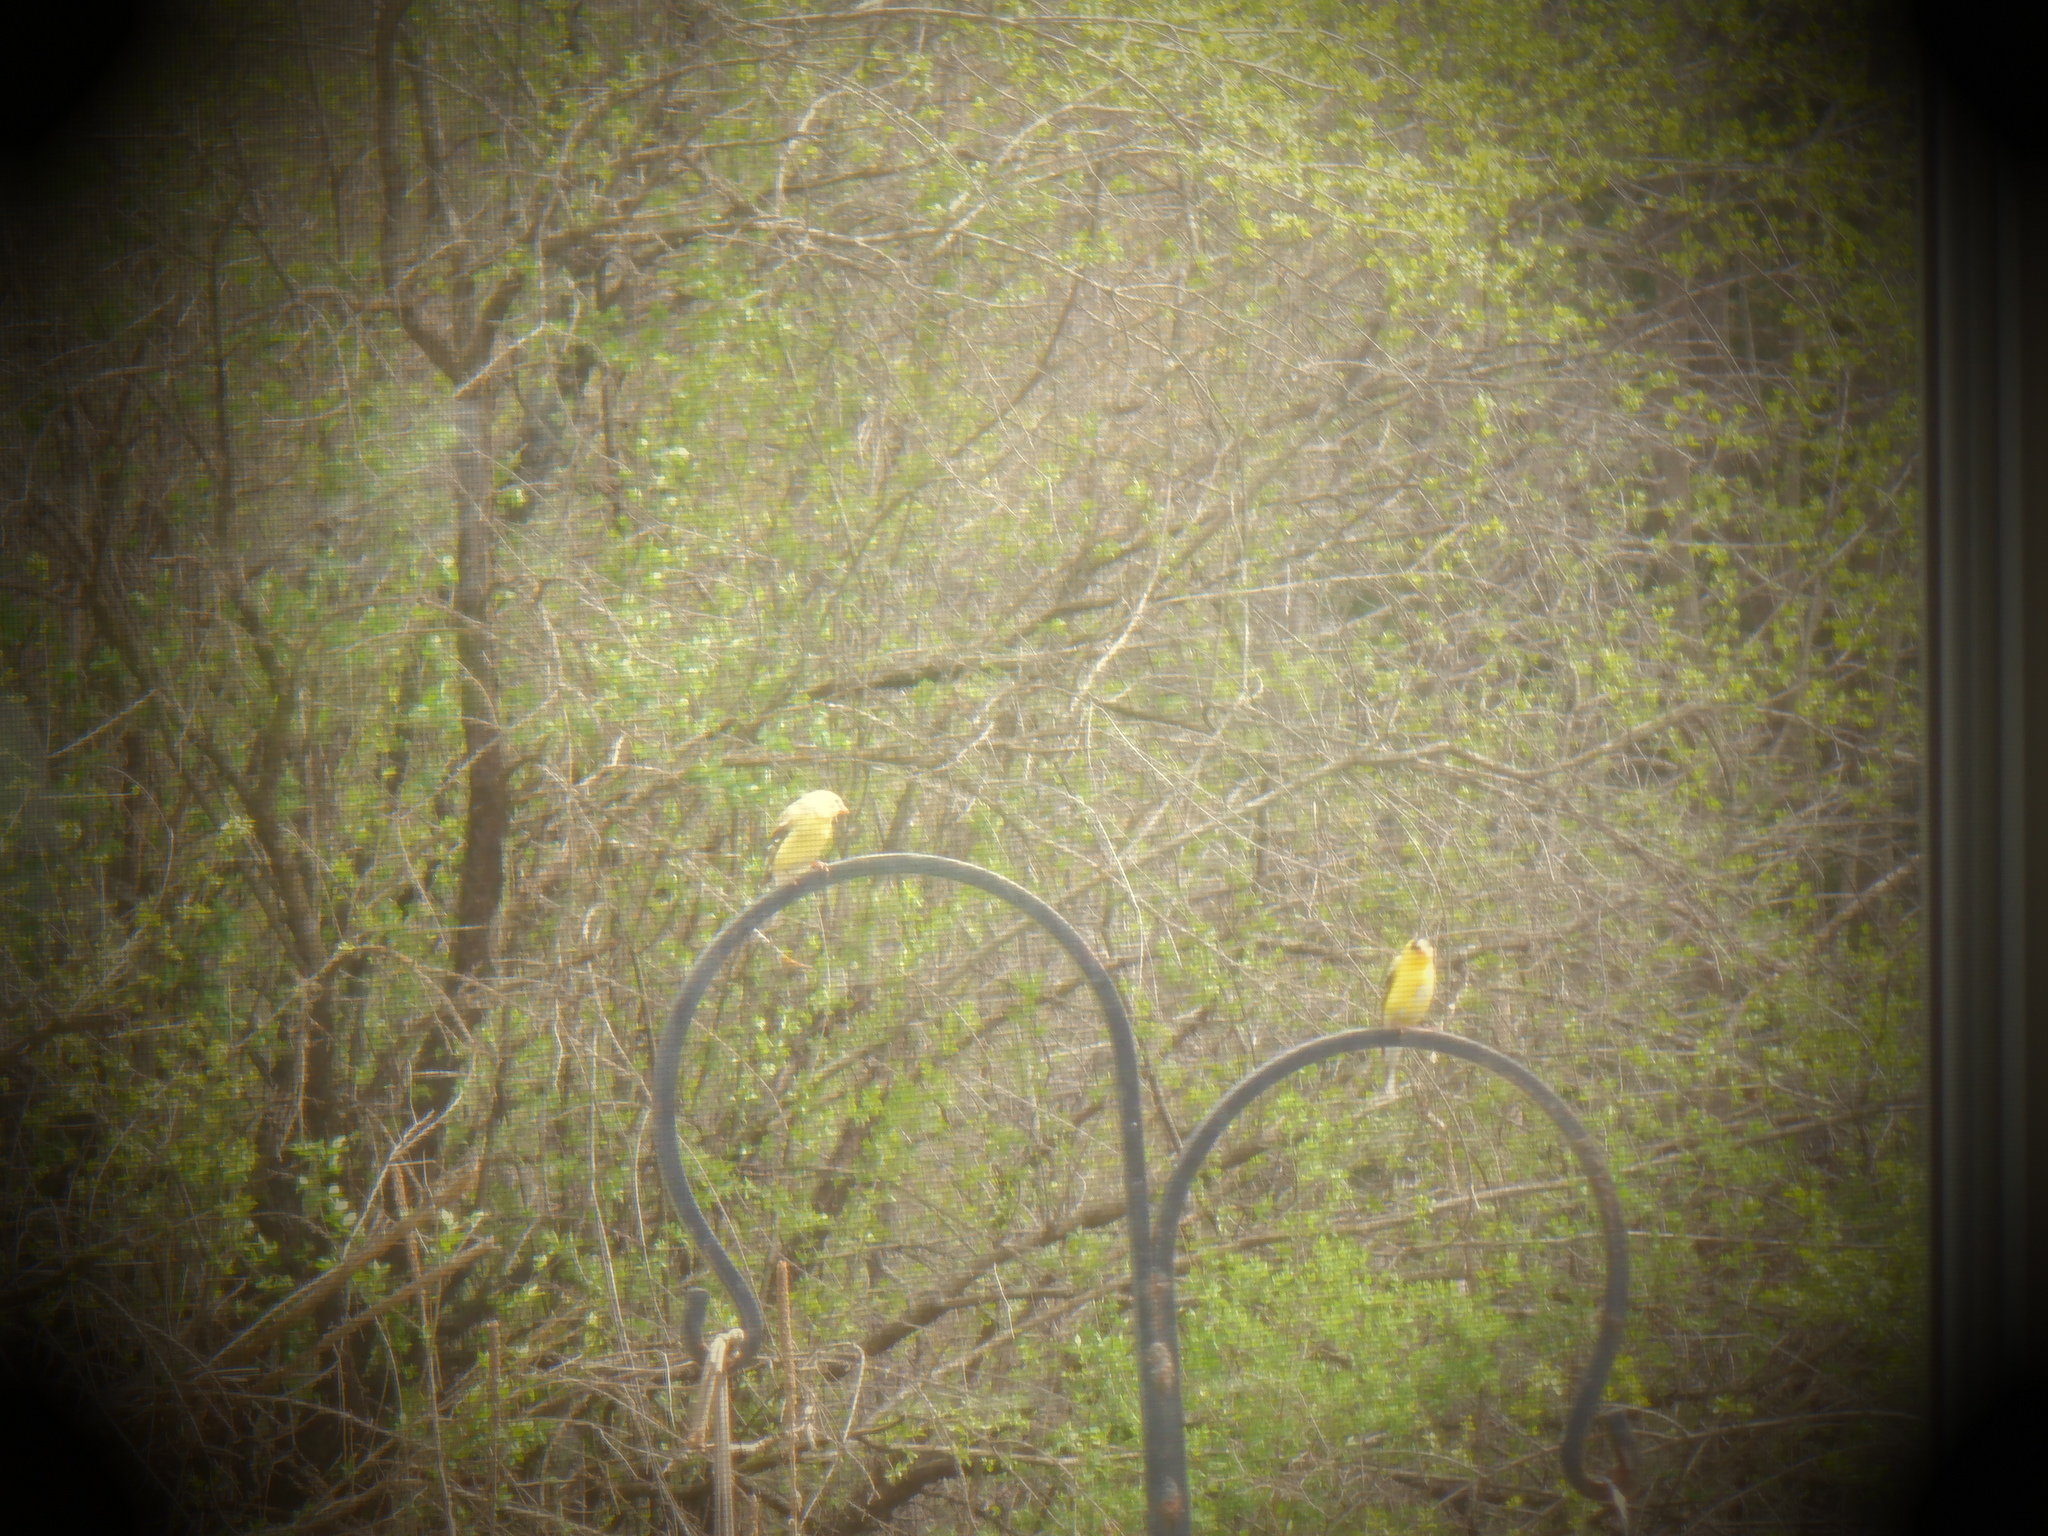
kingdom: Animalia
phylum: Chordata
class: Aves
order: Passeriformes
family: Fringillidae
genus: Spinus
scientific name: Spinus tristis
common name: American goldfinch
